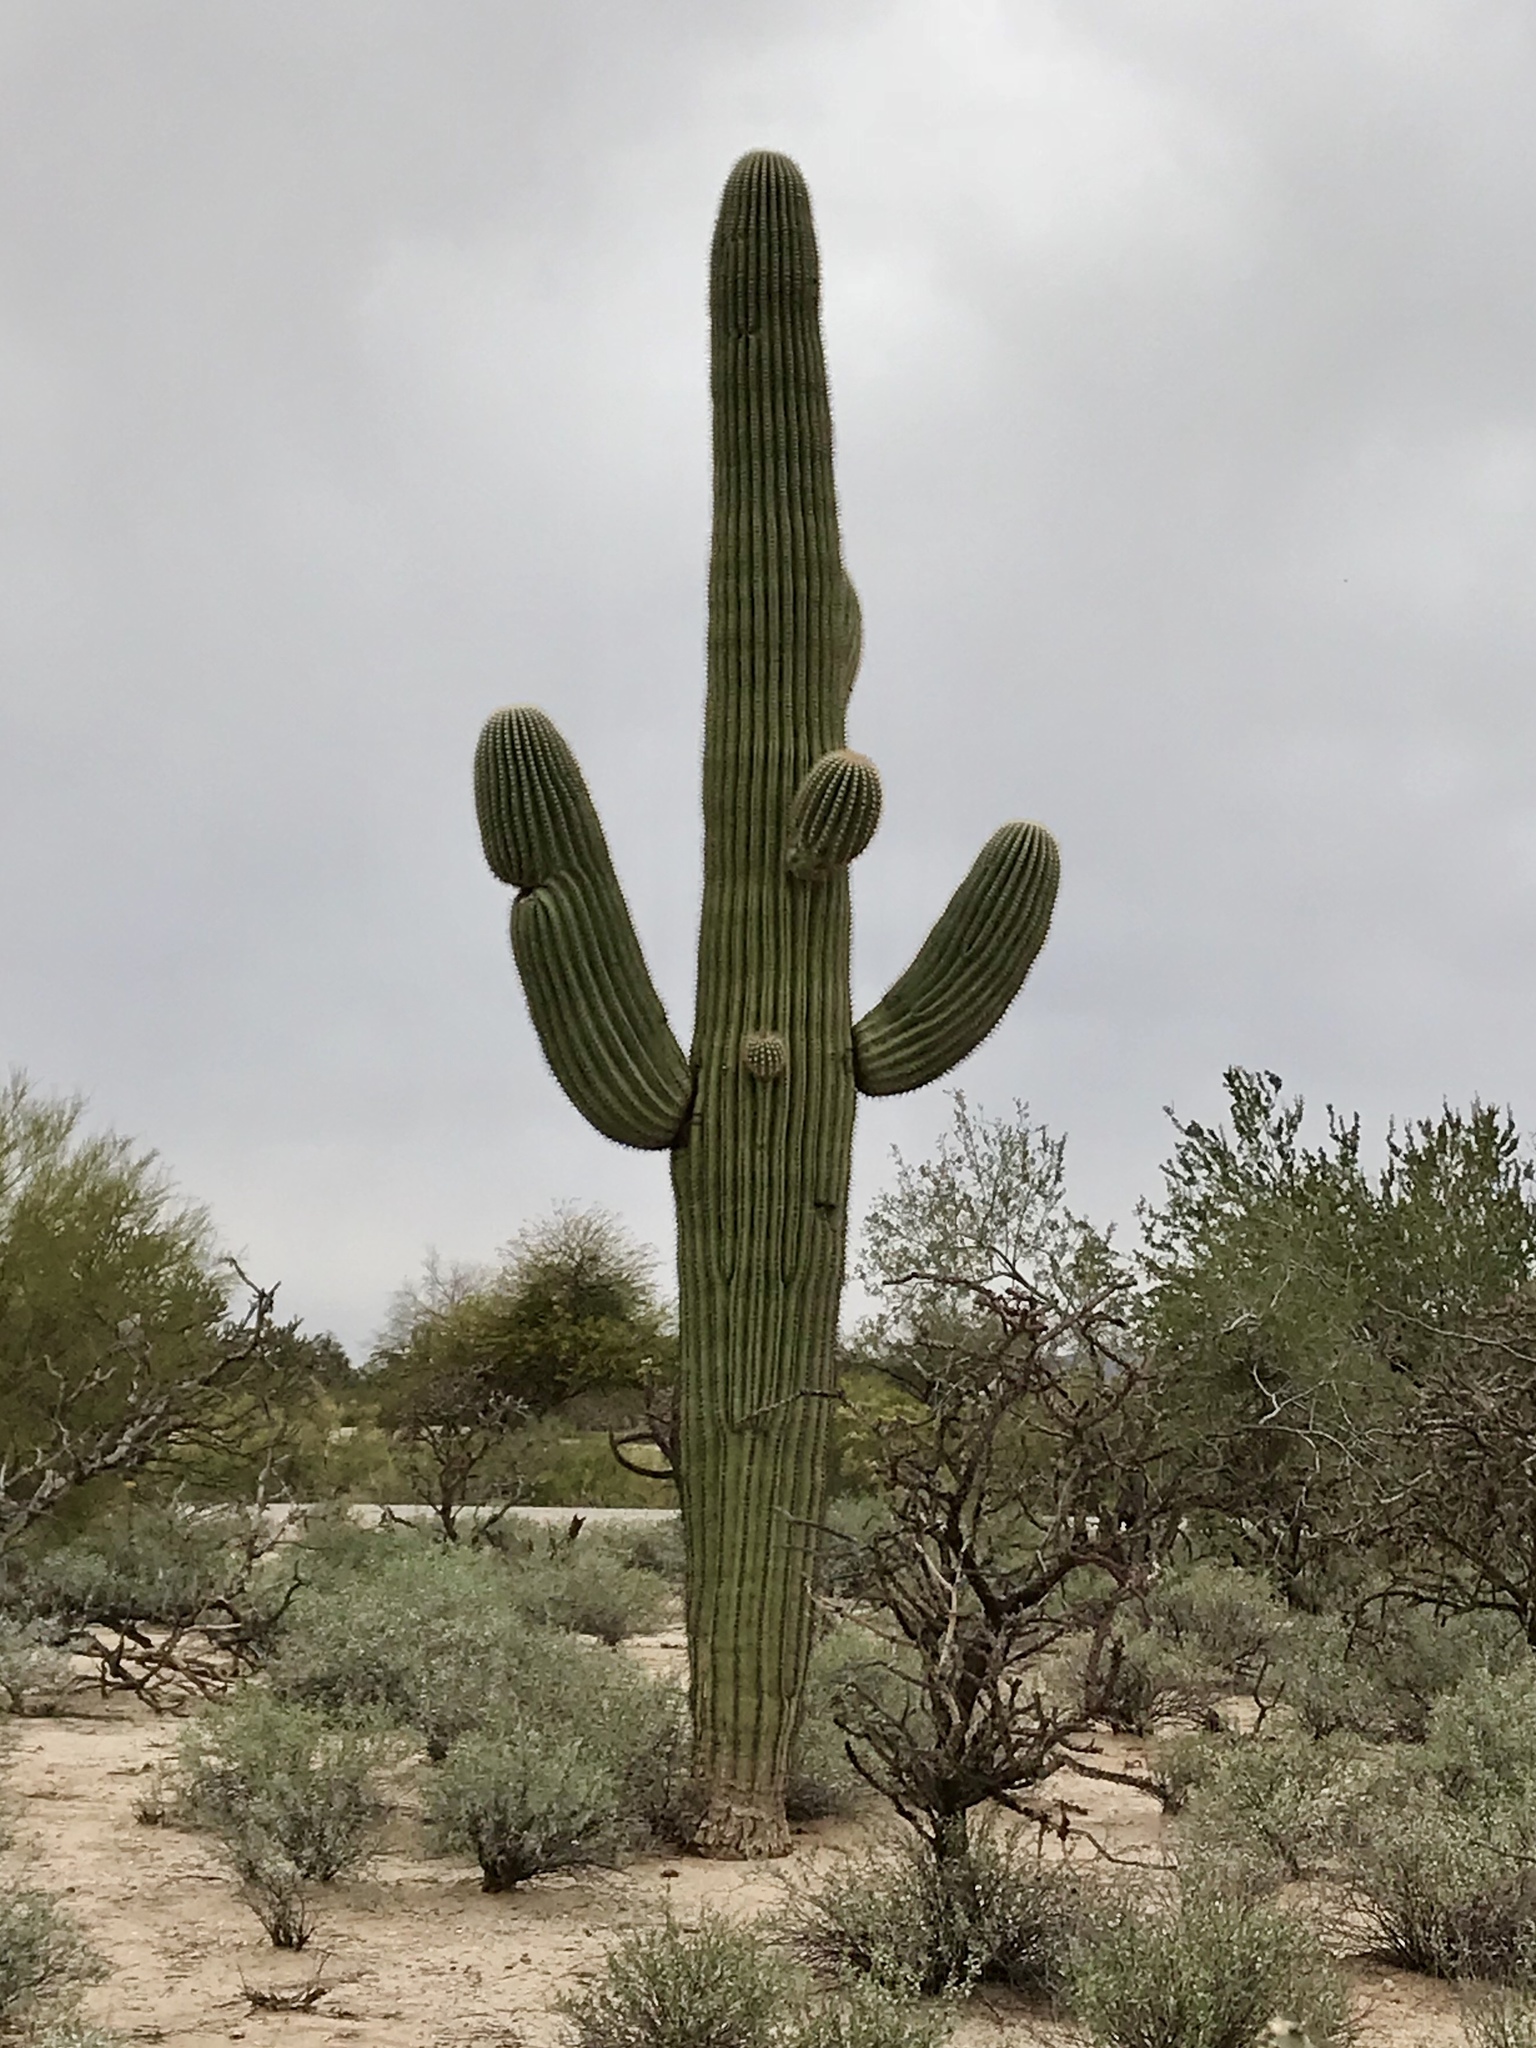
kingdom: Plantae
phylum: Tracheophyta
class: Magnoliopsida
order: Caryophyllales
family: Cactaceae
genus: Carnegiea
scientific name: Carnegiea gigantea
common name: Saguaro
